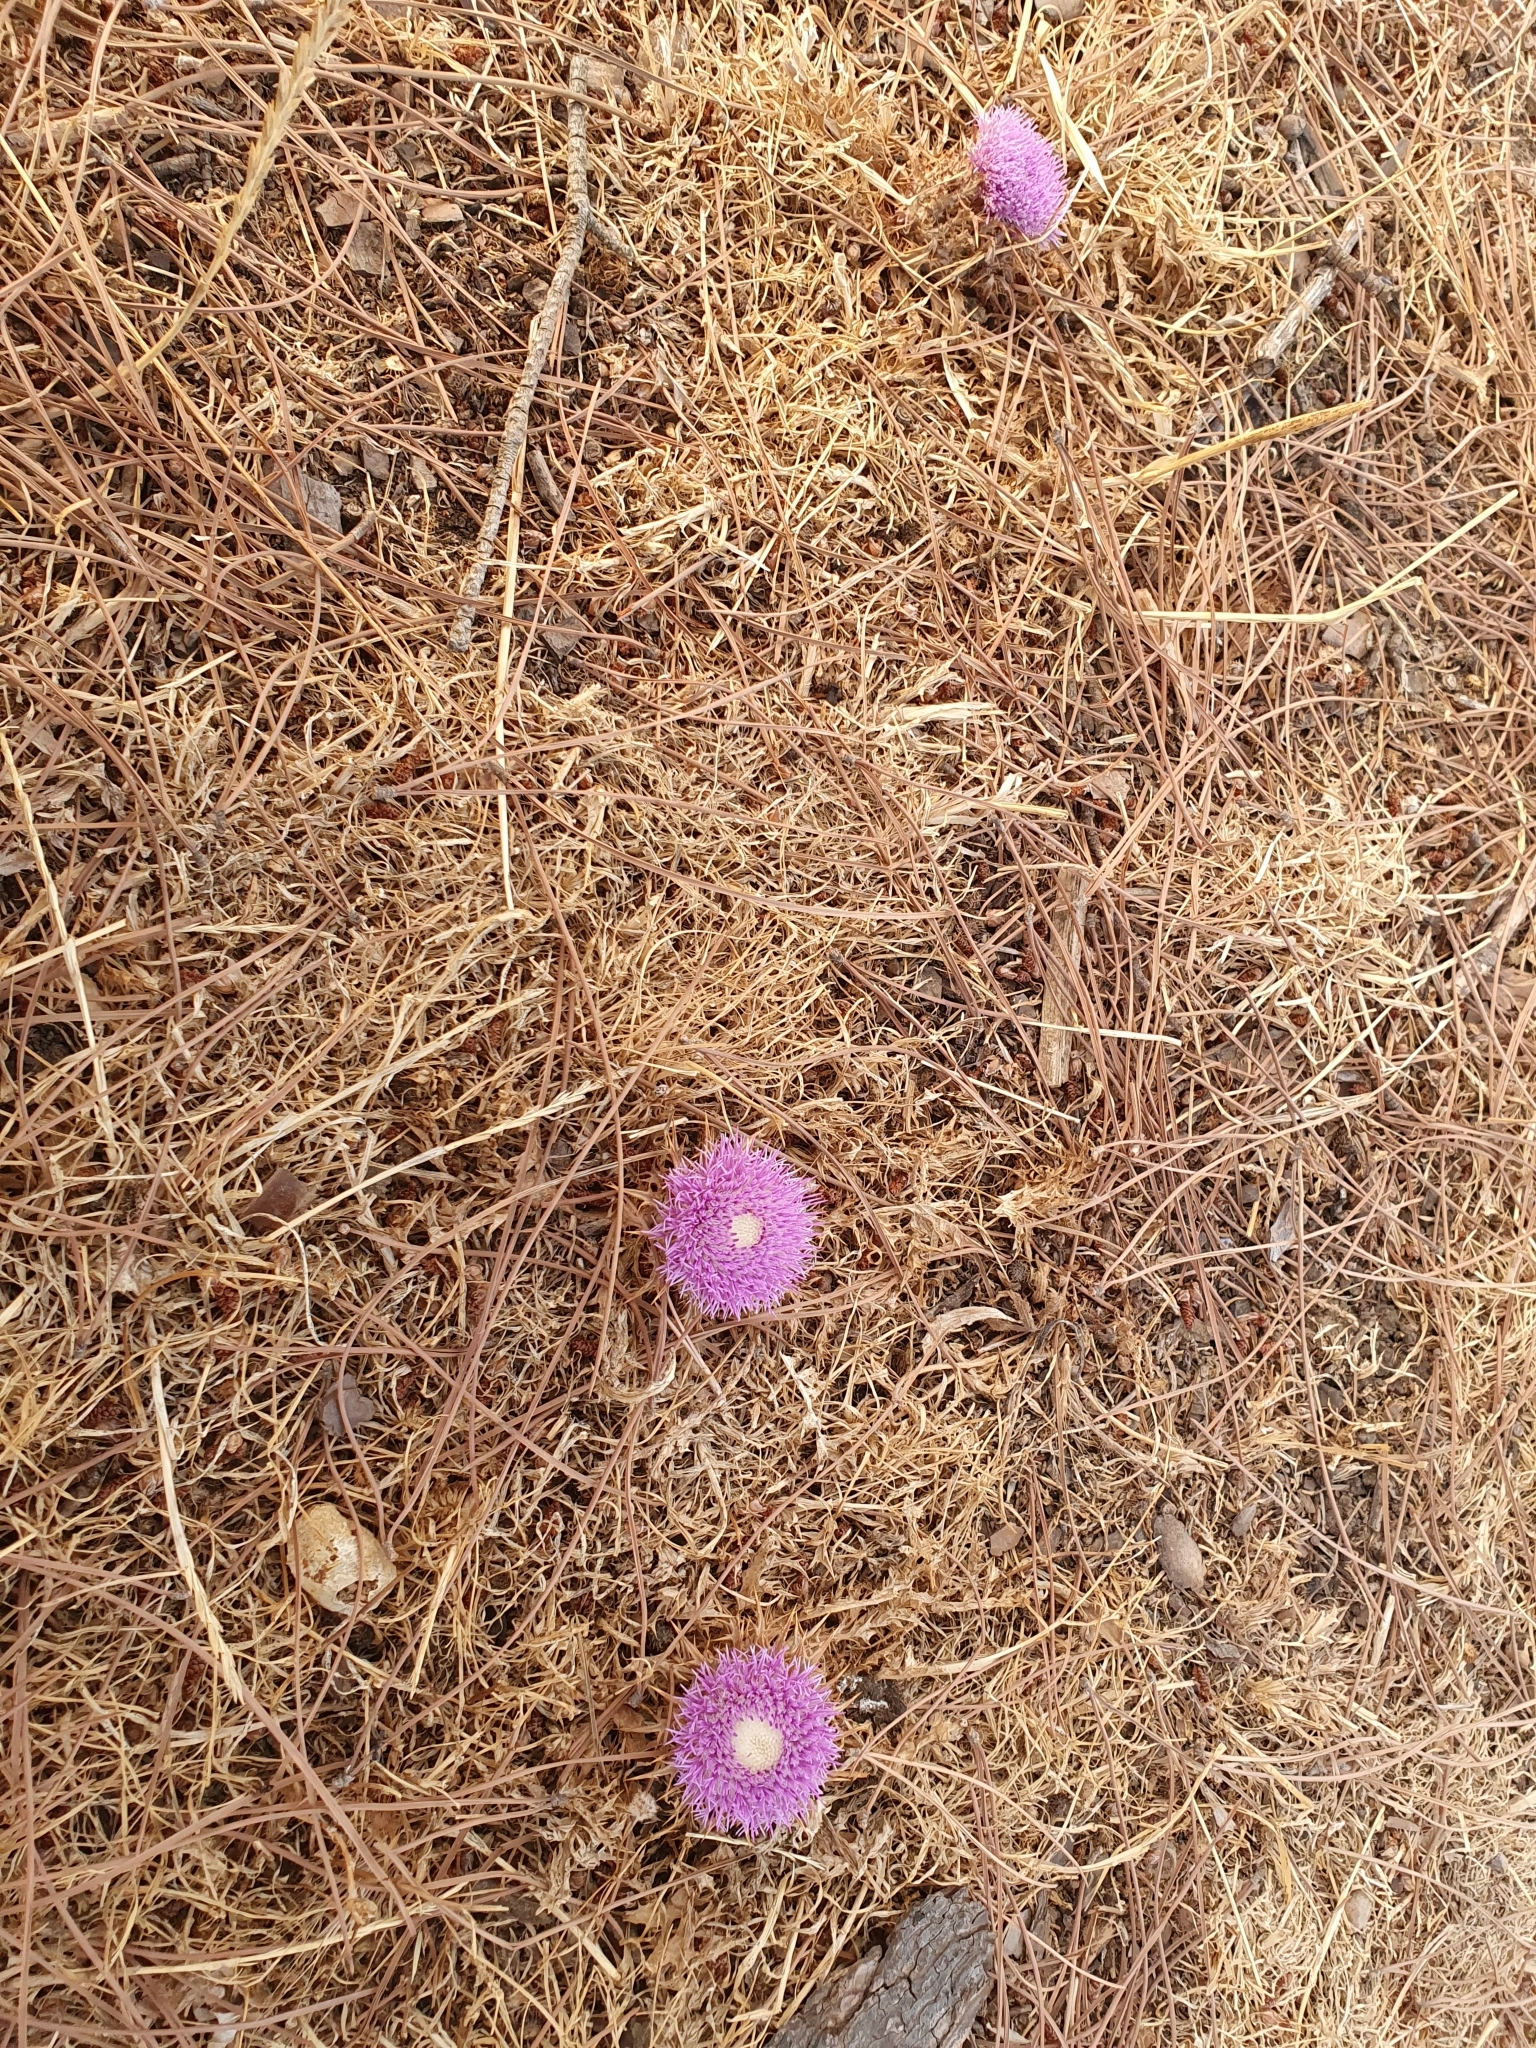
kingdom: Plantae
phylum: Tracheophyta
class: Magnoliopsida
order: Asterales
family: Asteraceae
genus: Chamaeleon
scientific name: Chamaeleon gummifer
